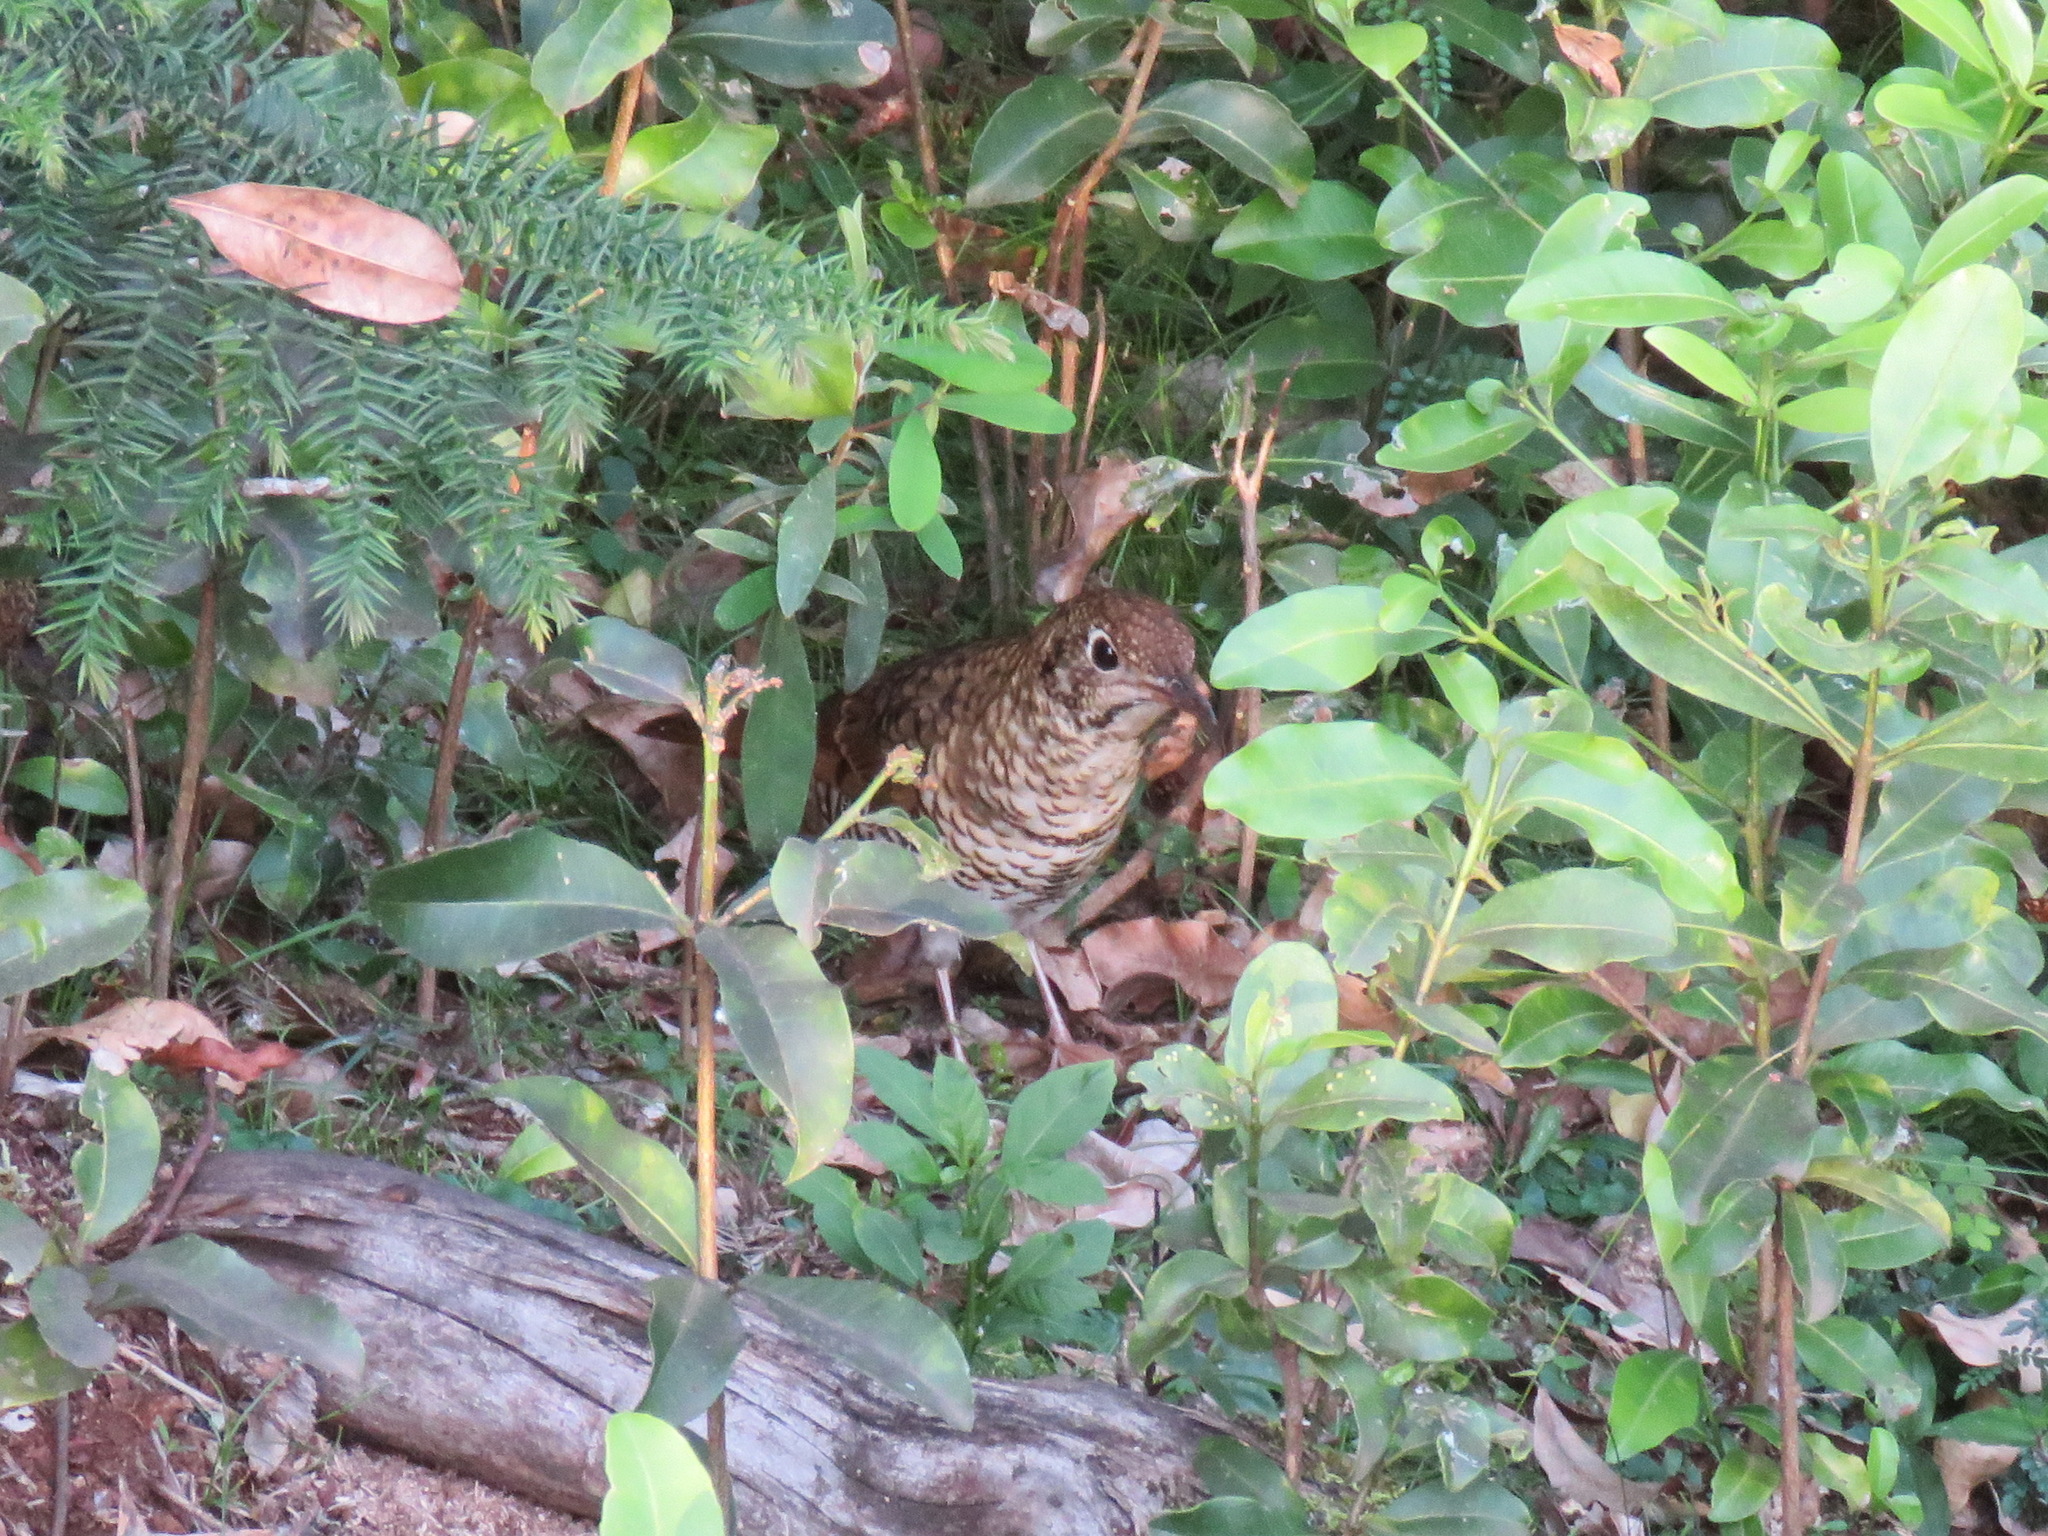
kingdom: Animalia
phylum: Chordata
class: Aves
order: Passeriformes
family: Turdidae
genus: Zoothera
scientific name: Zoothera lunulata
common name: Bassian thrush
